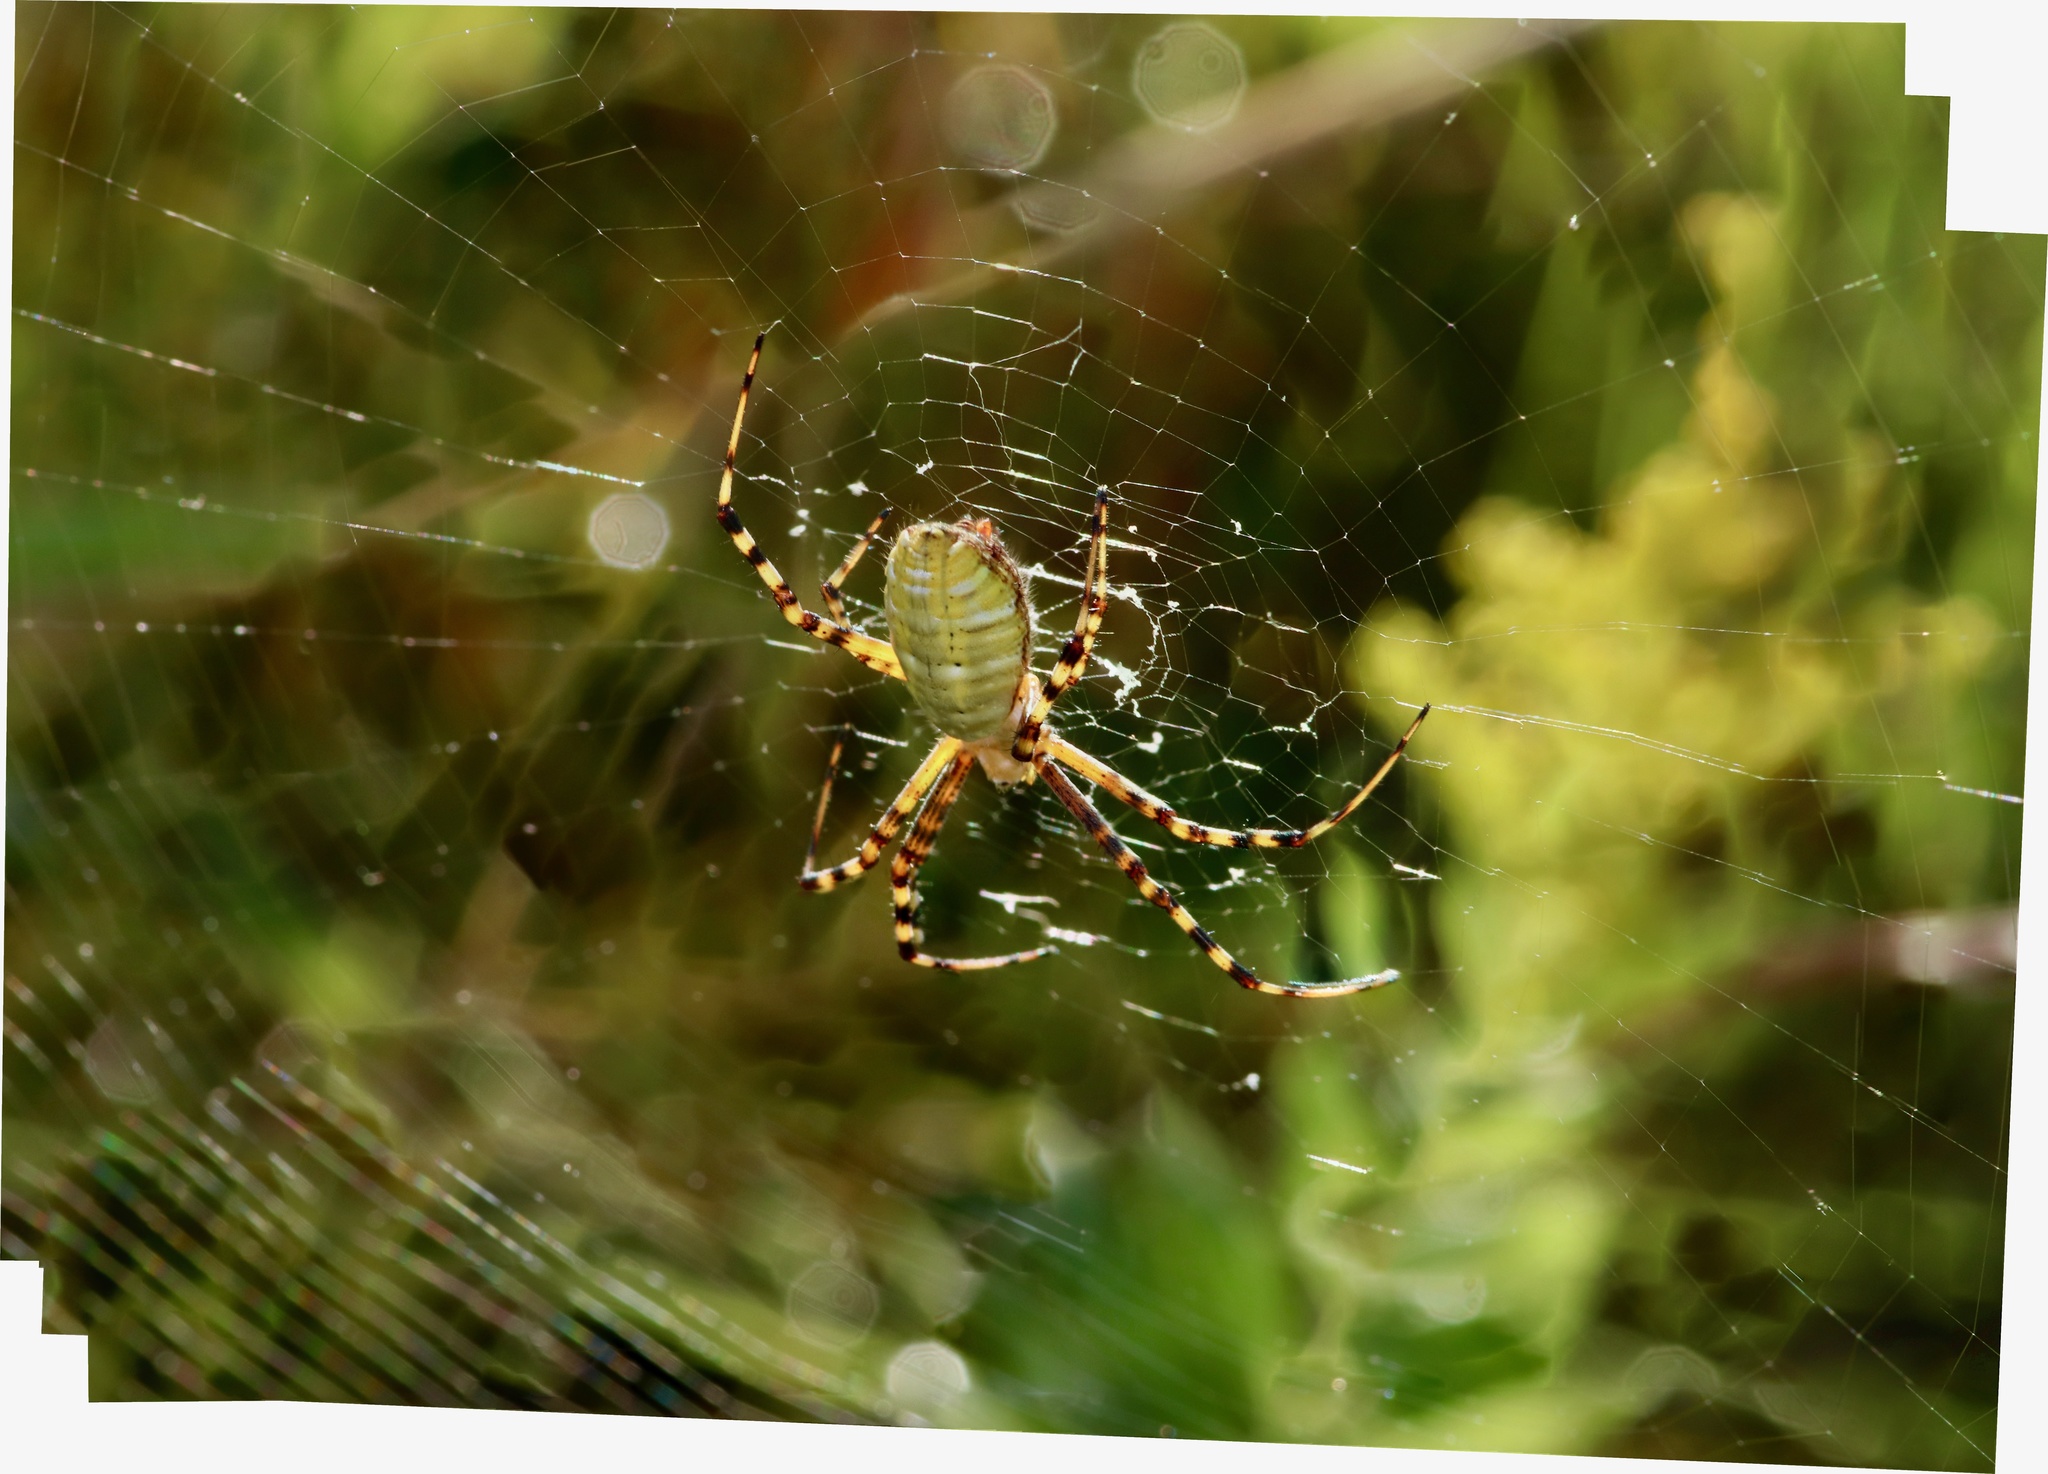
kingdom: Animalia
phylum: Arthropoda
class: Arachnida
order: Araneae
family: Araneidae
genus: Argiope
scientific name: Argiope trifasciata
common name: Banded garden spider
